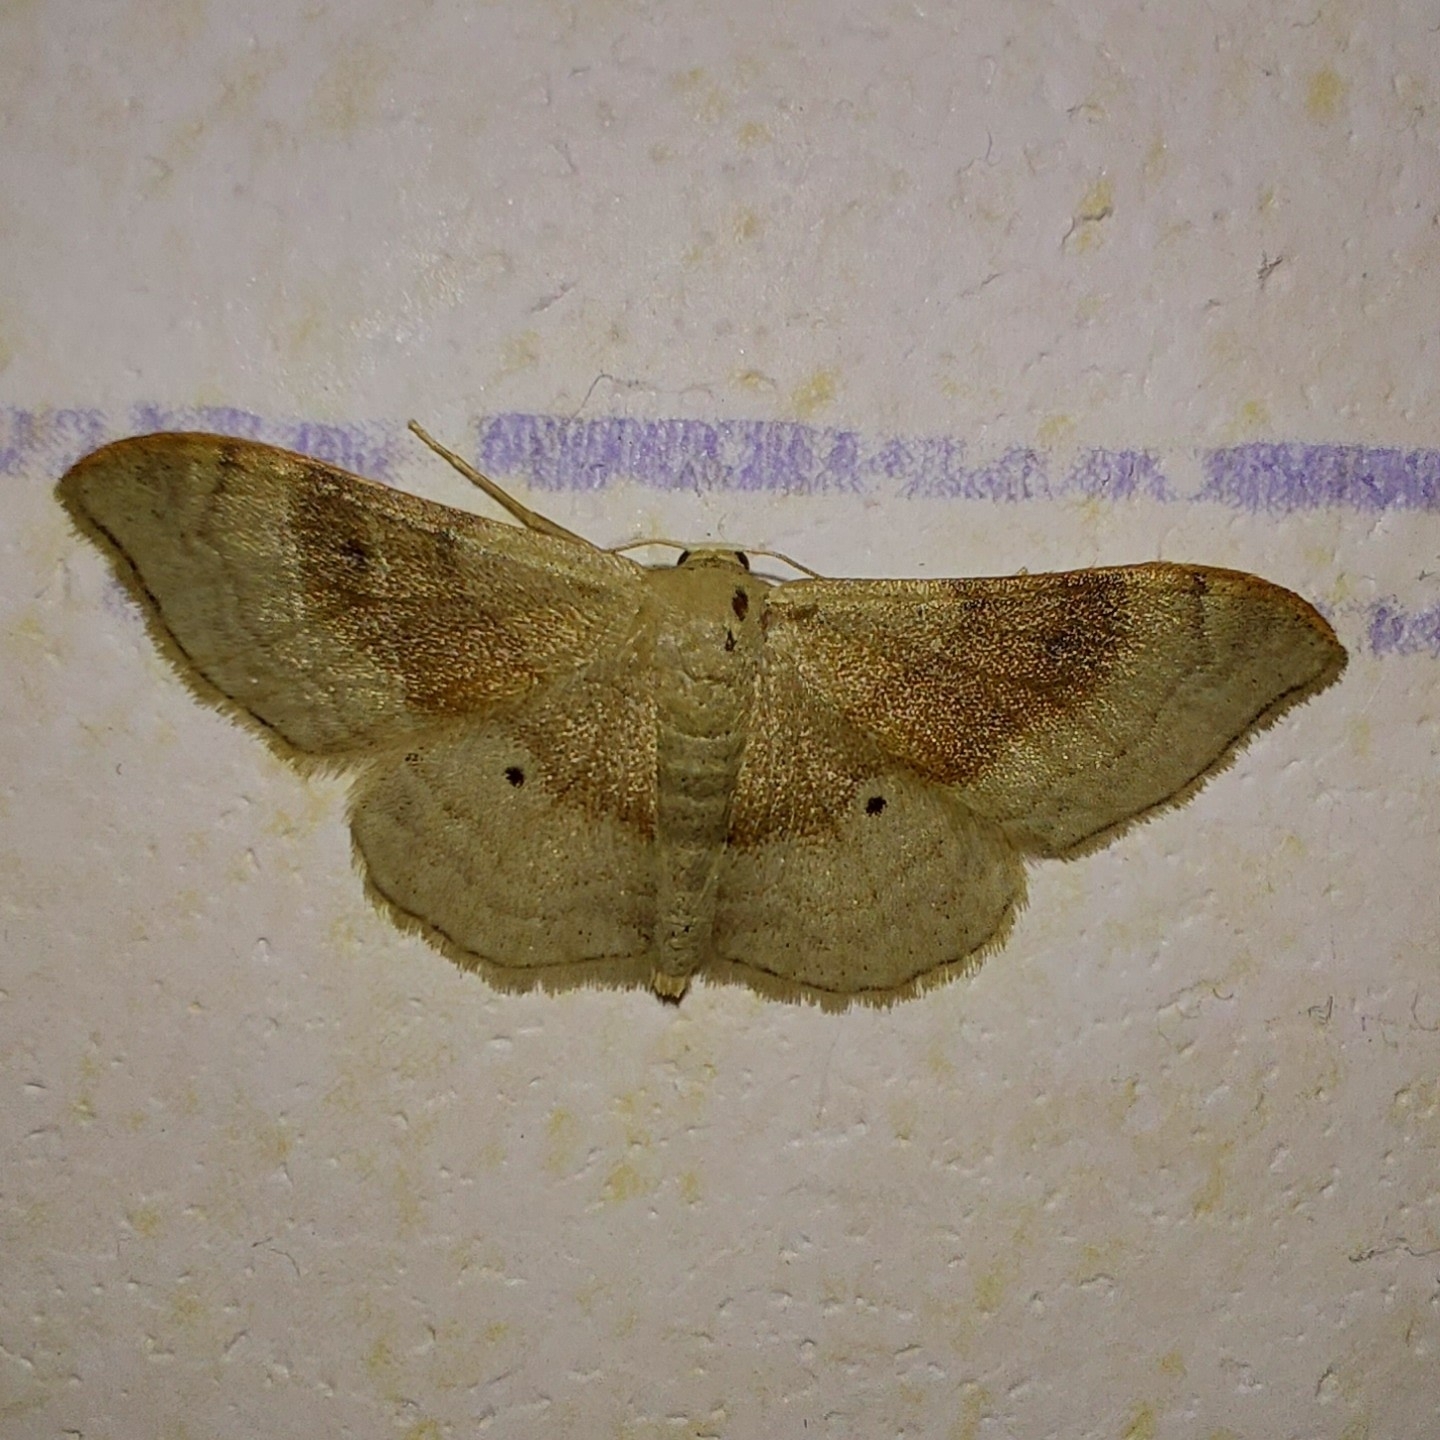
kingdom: Animalia
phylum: Arthropoda
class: Insecta
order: Lepidoptera
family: Geometridae
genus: Idaea
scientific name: Idaea degeneraria
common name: Portland ribbon wave
